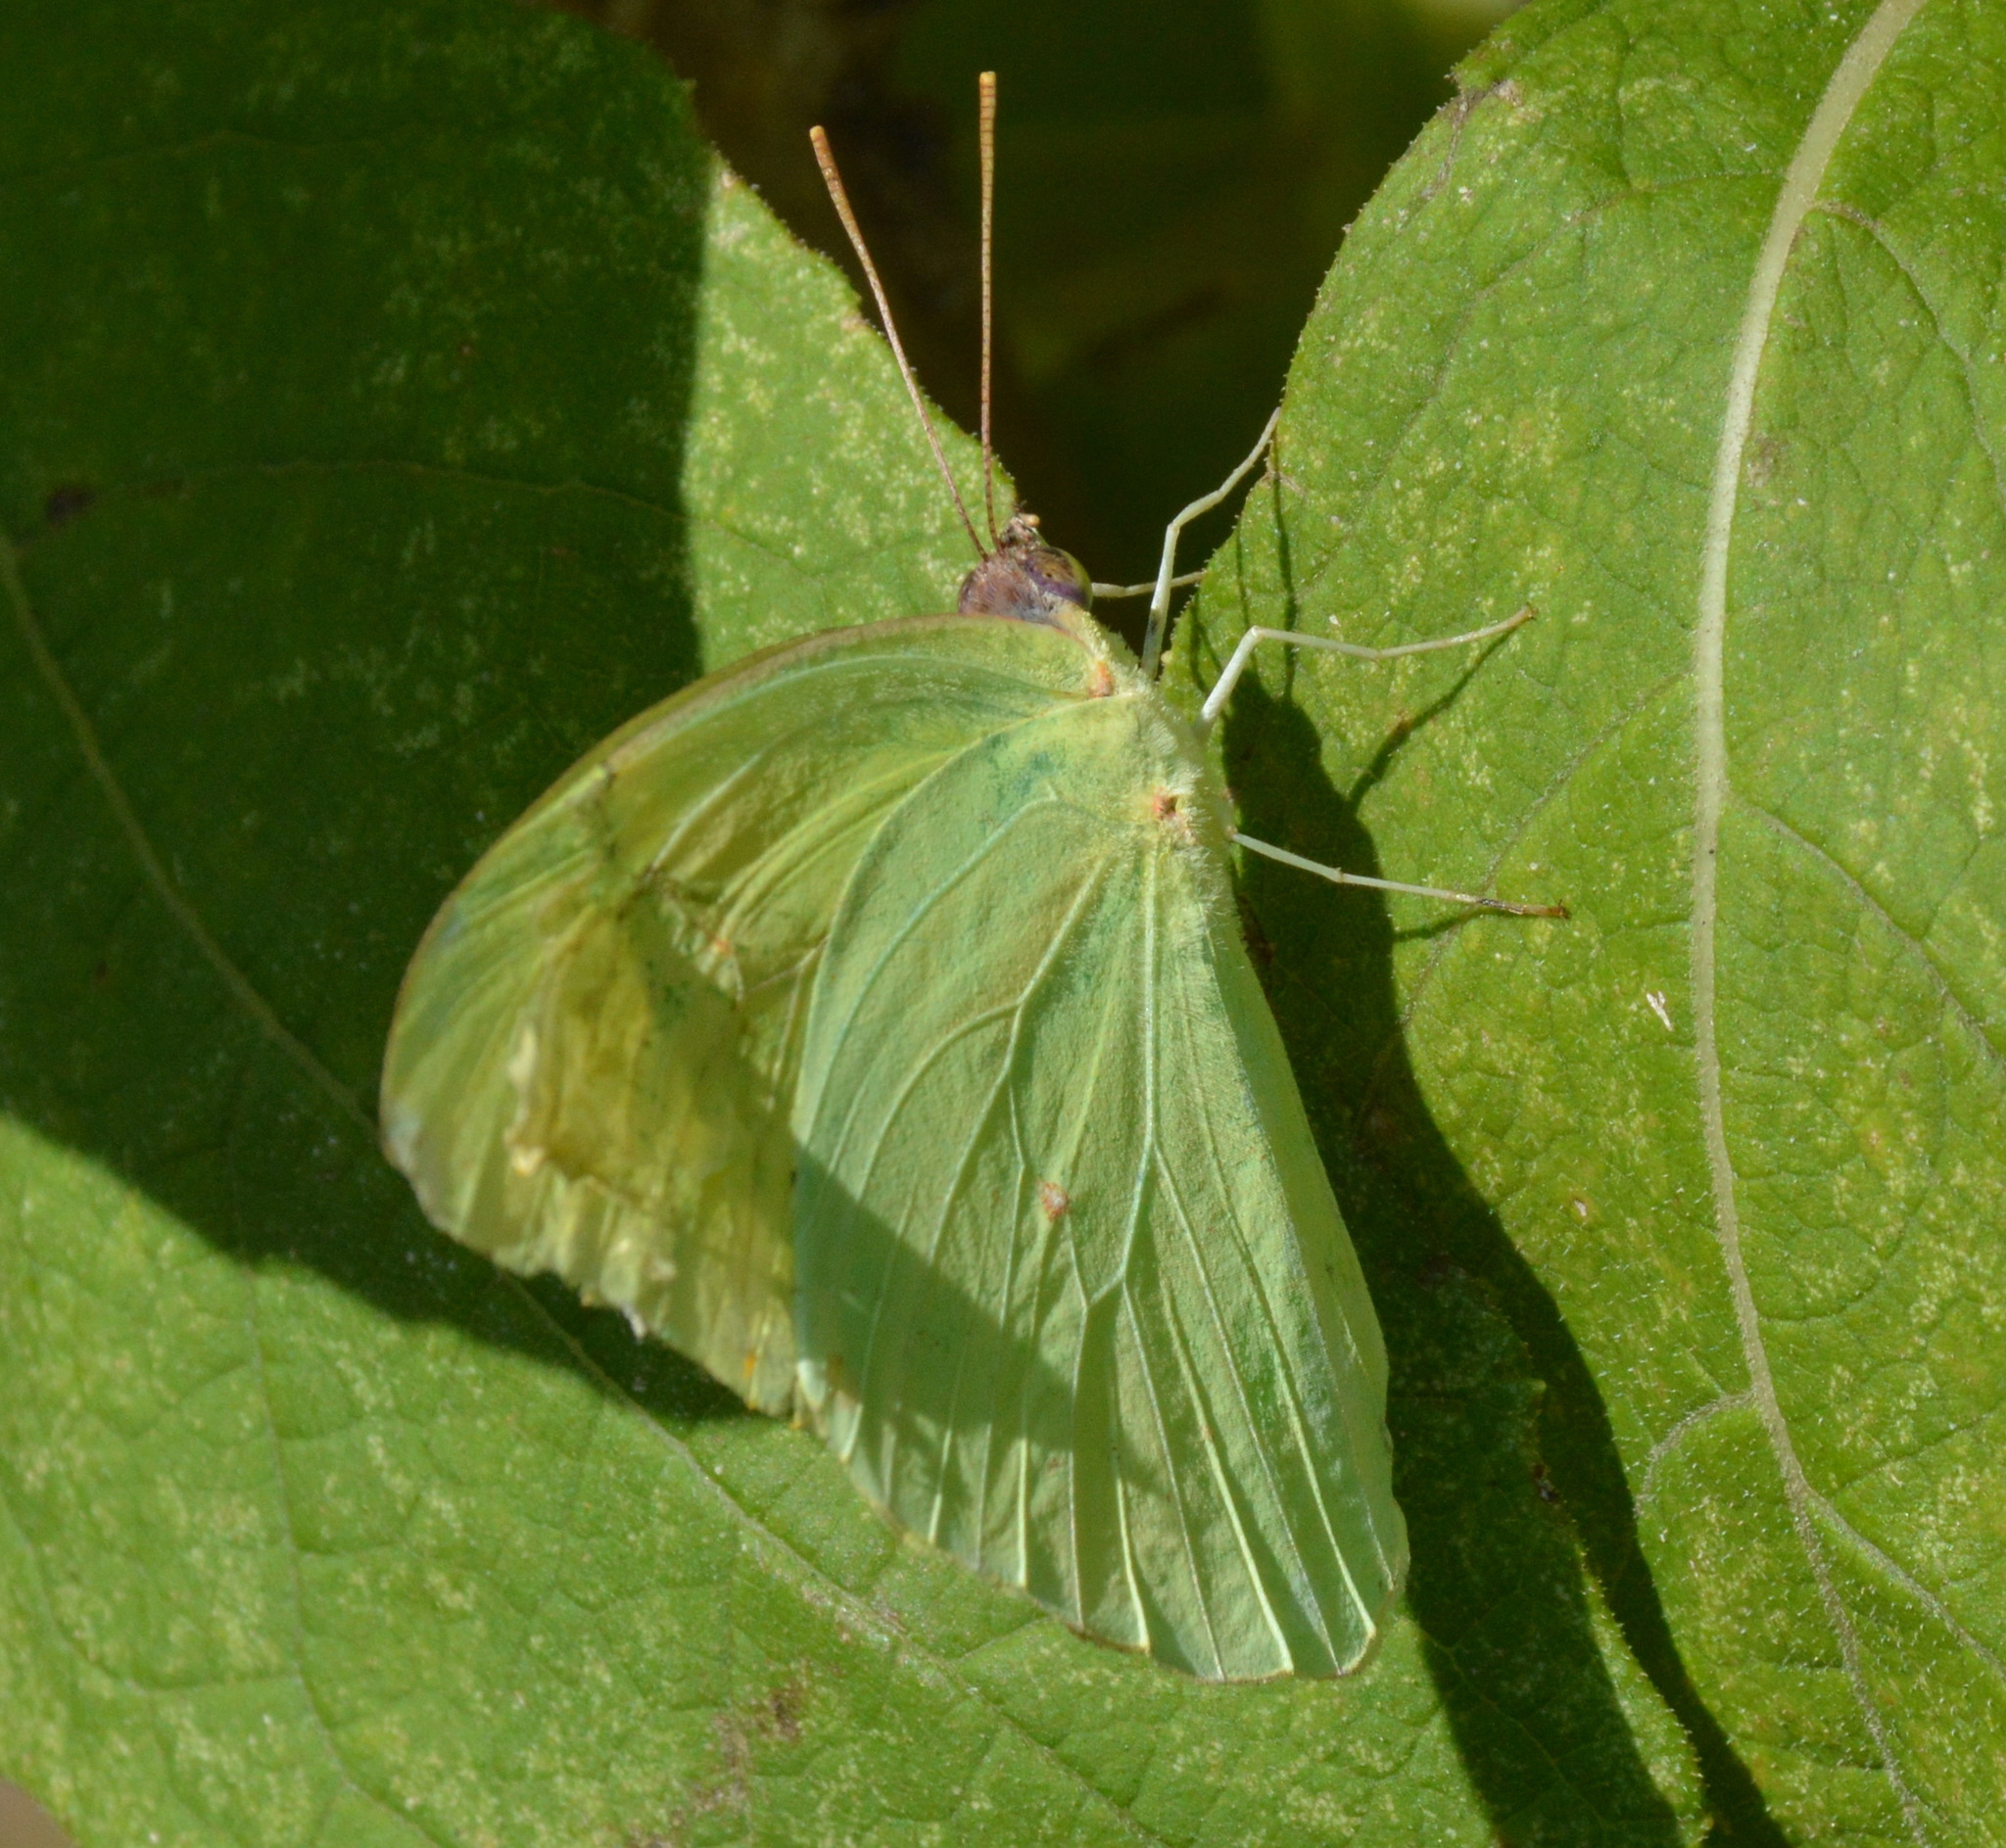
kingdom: Animalia
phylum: Arthropoda
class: Insecta
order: Lepidoptera
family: Pieridae
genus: Phoebis
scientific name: Phoebis sennae
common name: Cloudless sulphur
